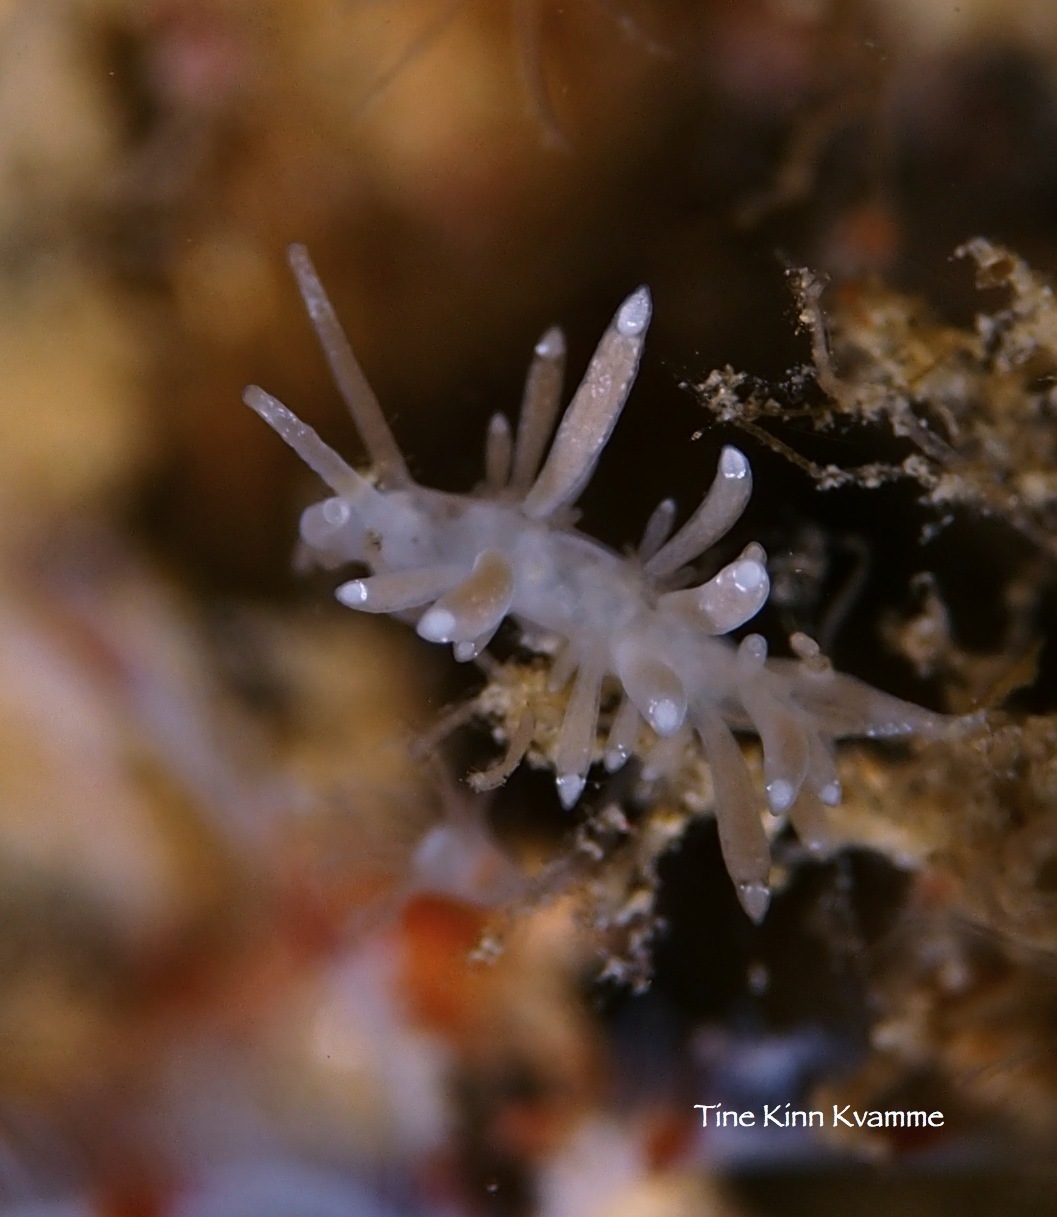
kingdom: Animalia
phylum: Mollusca
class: Gastropoda
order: Nudibranchia
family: Tergipedidae
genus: Tergipes
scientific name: Tergipes tergipes
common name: Johnston's balloon eolis
